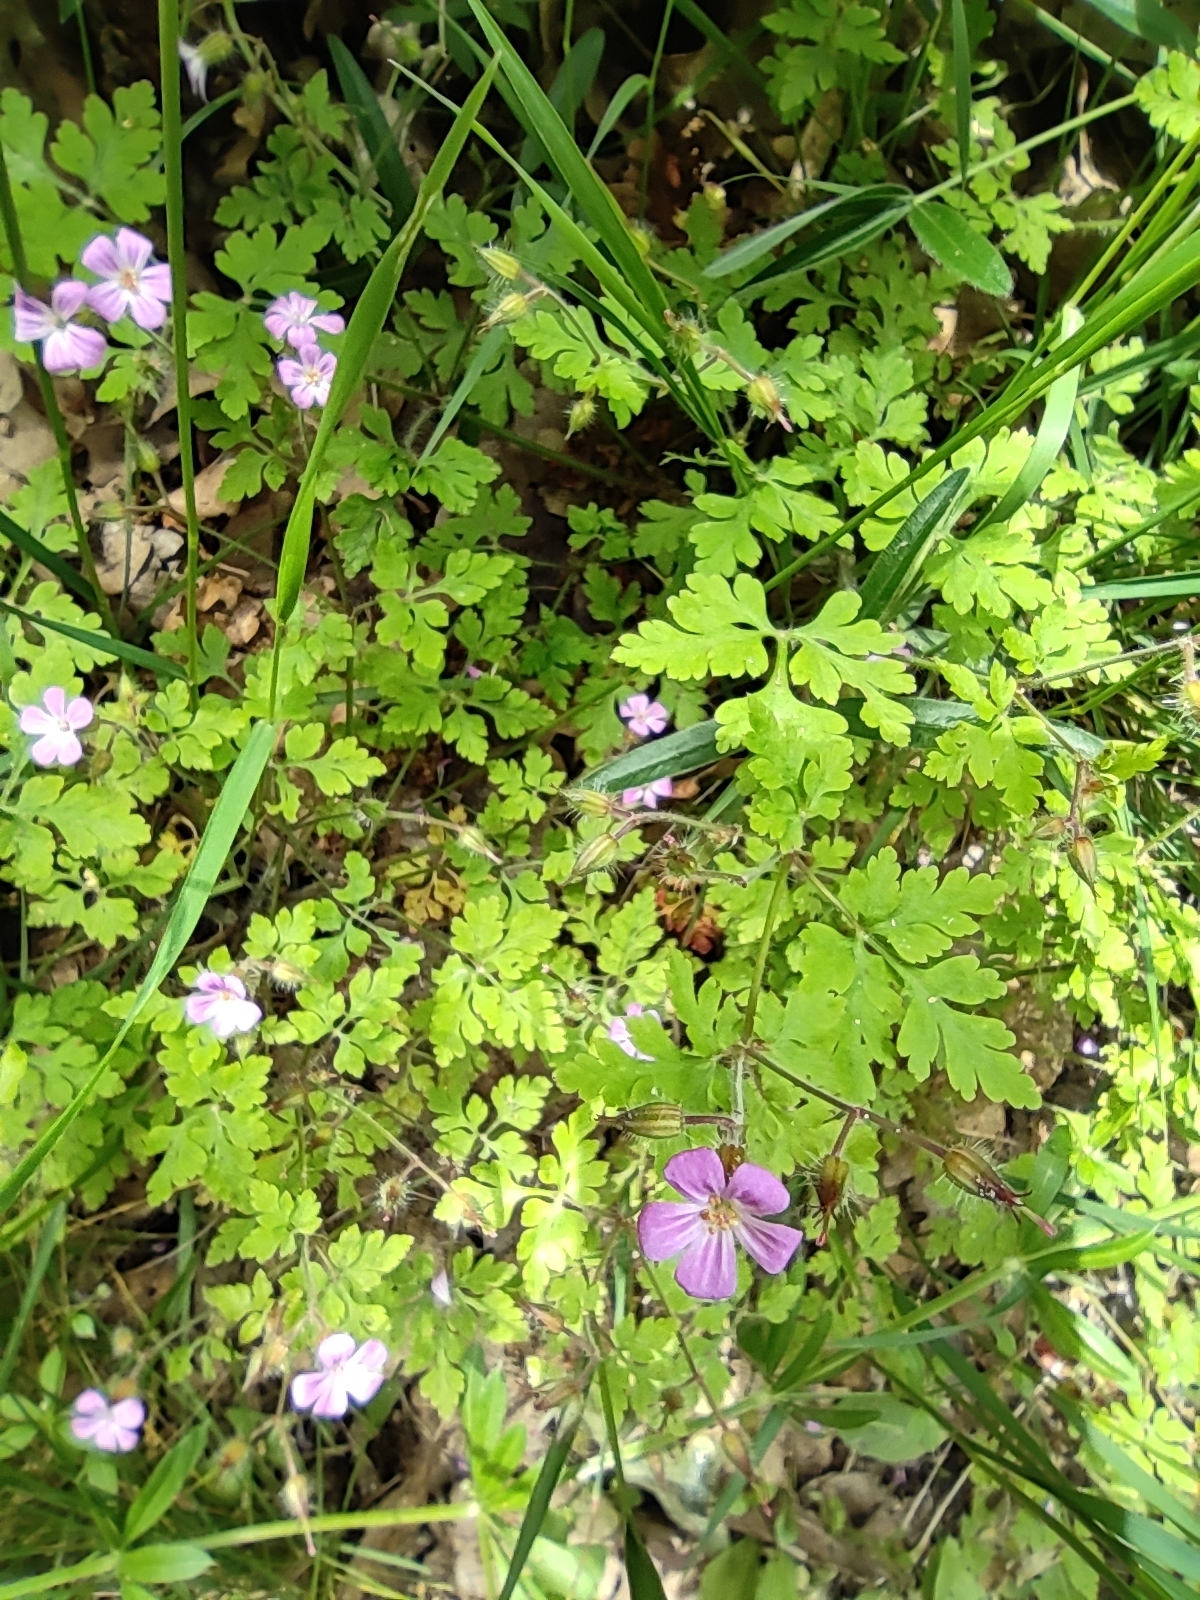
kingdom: Plantae
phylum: Tracheophyta
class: Magnoliopsida
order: Geraniales
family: Geraniaceae
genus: Geranium
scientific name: Geranium robertianum
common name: Herb-robert
